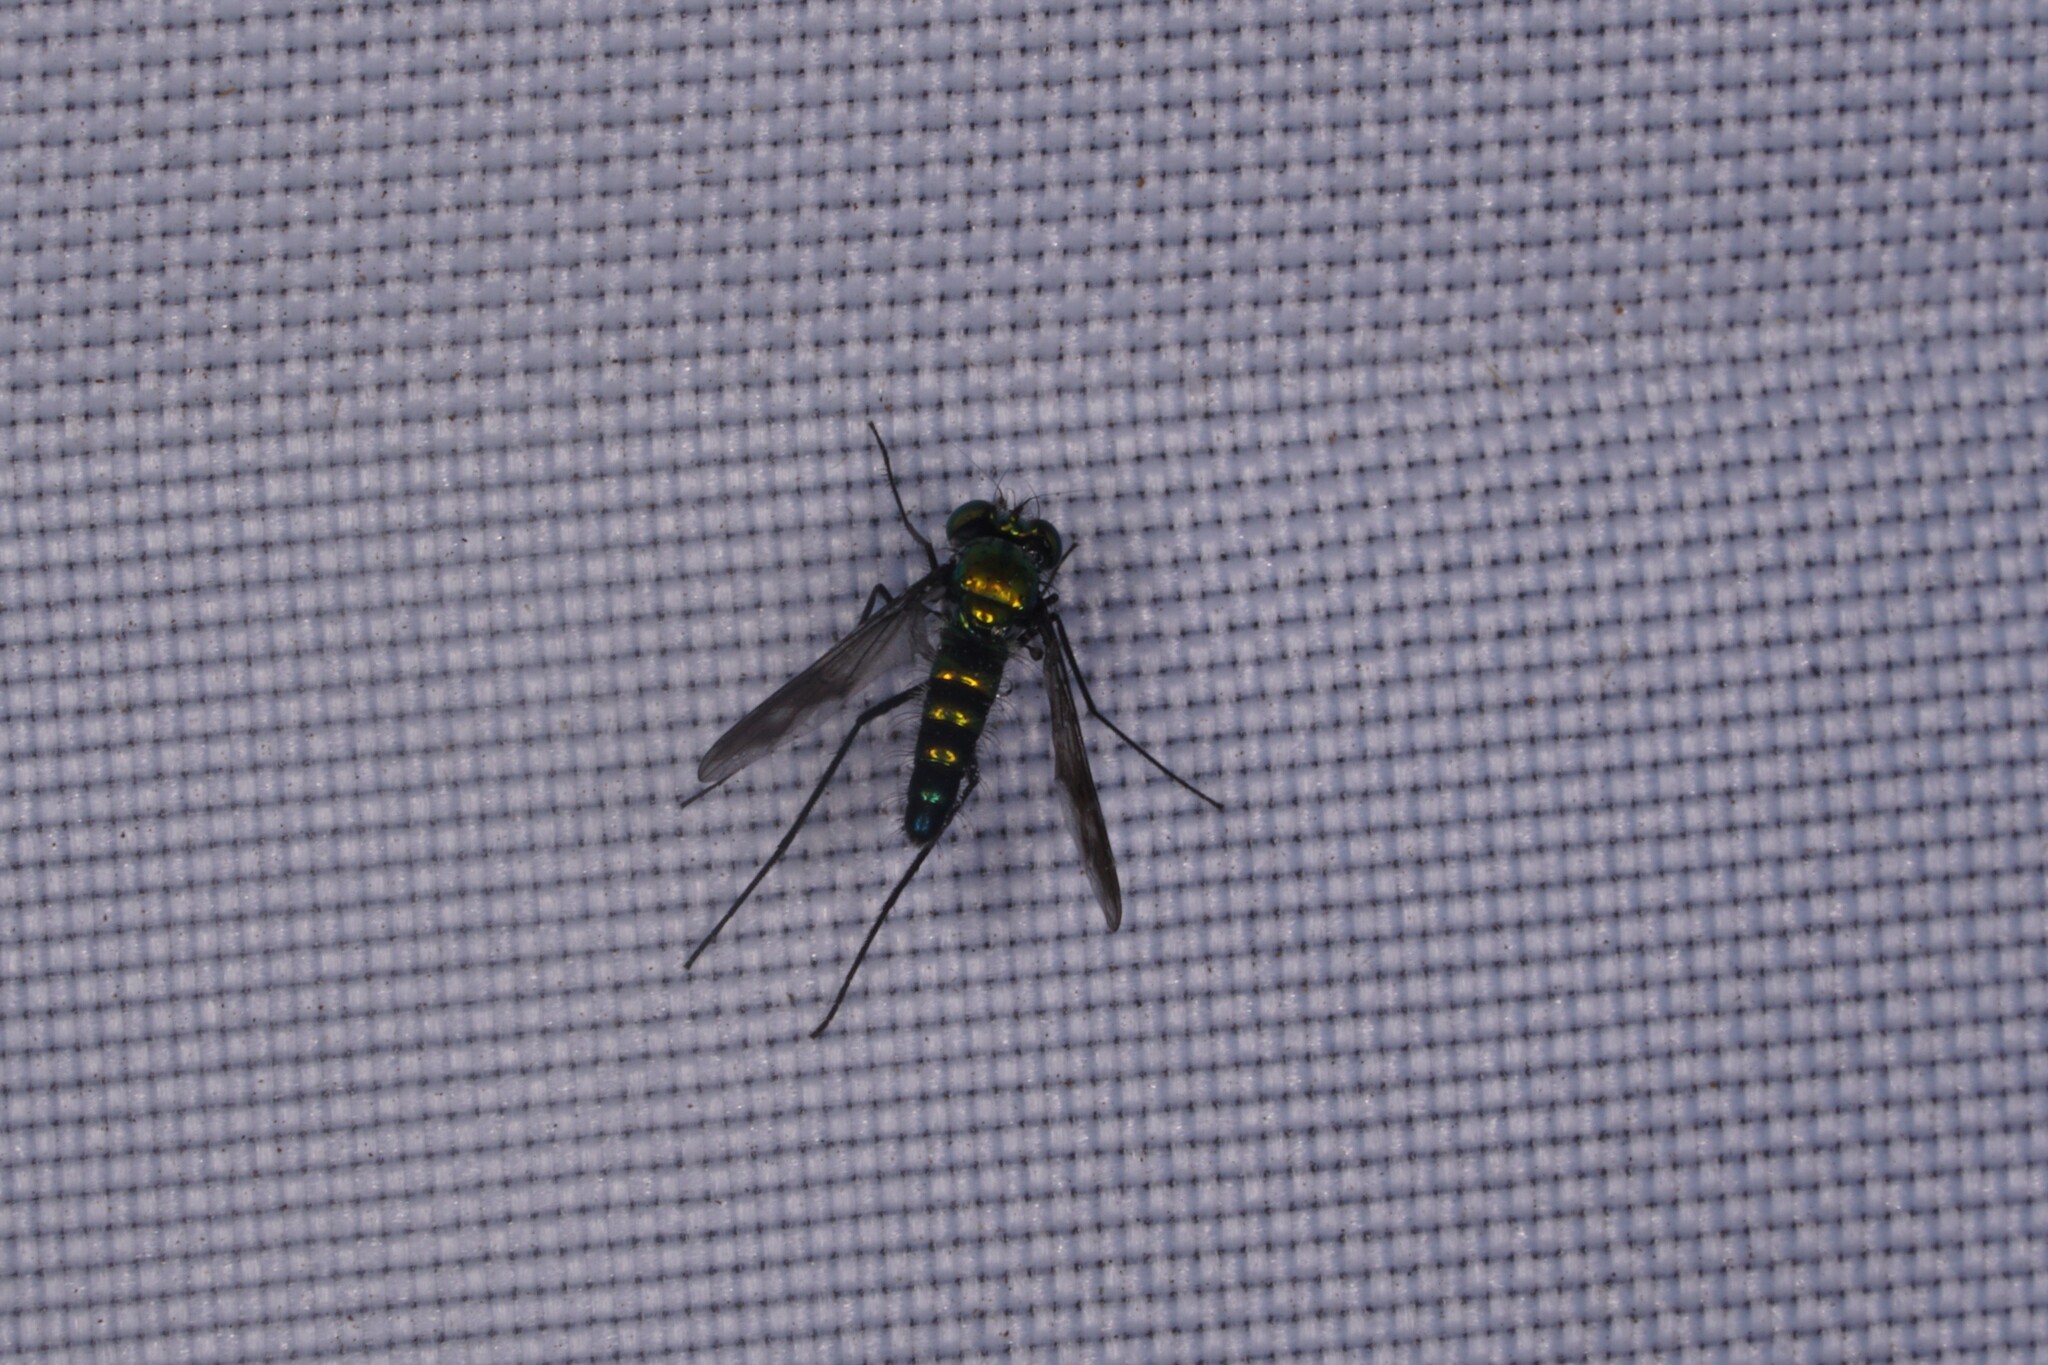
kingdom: Animalia
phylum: Arthropoda
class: Insecta
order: Diptera
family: Dolichopodidae
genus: Condylostylus
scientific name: Condylostylus patibulatus
